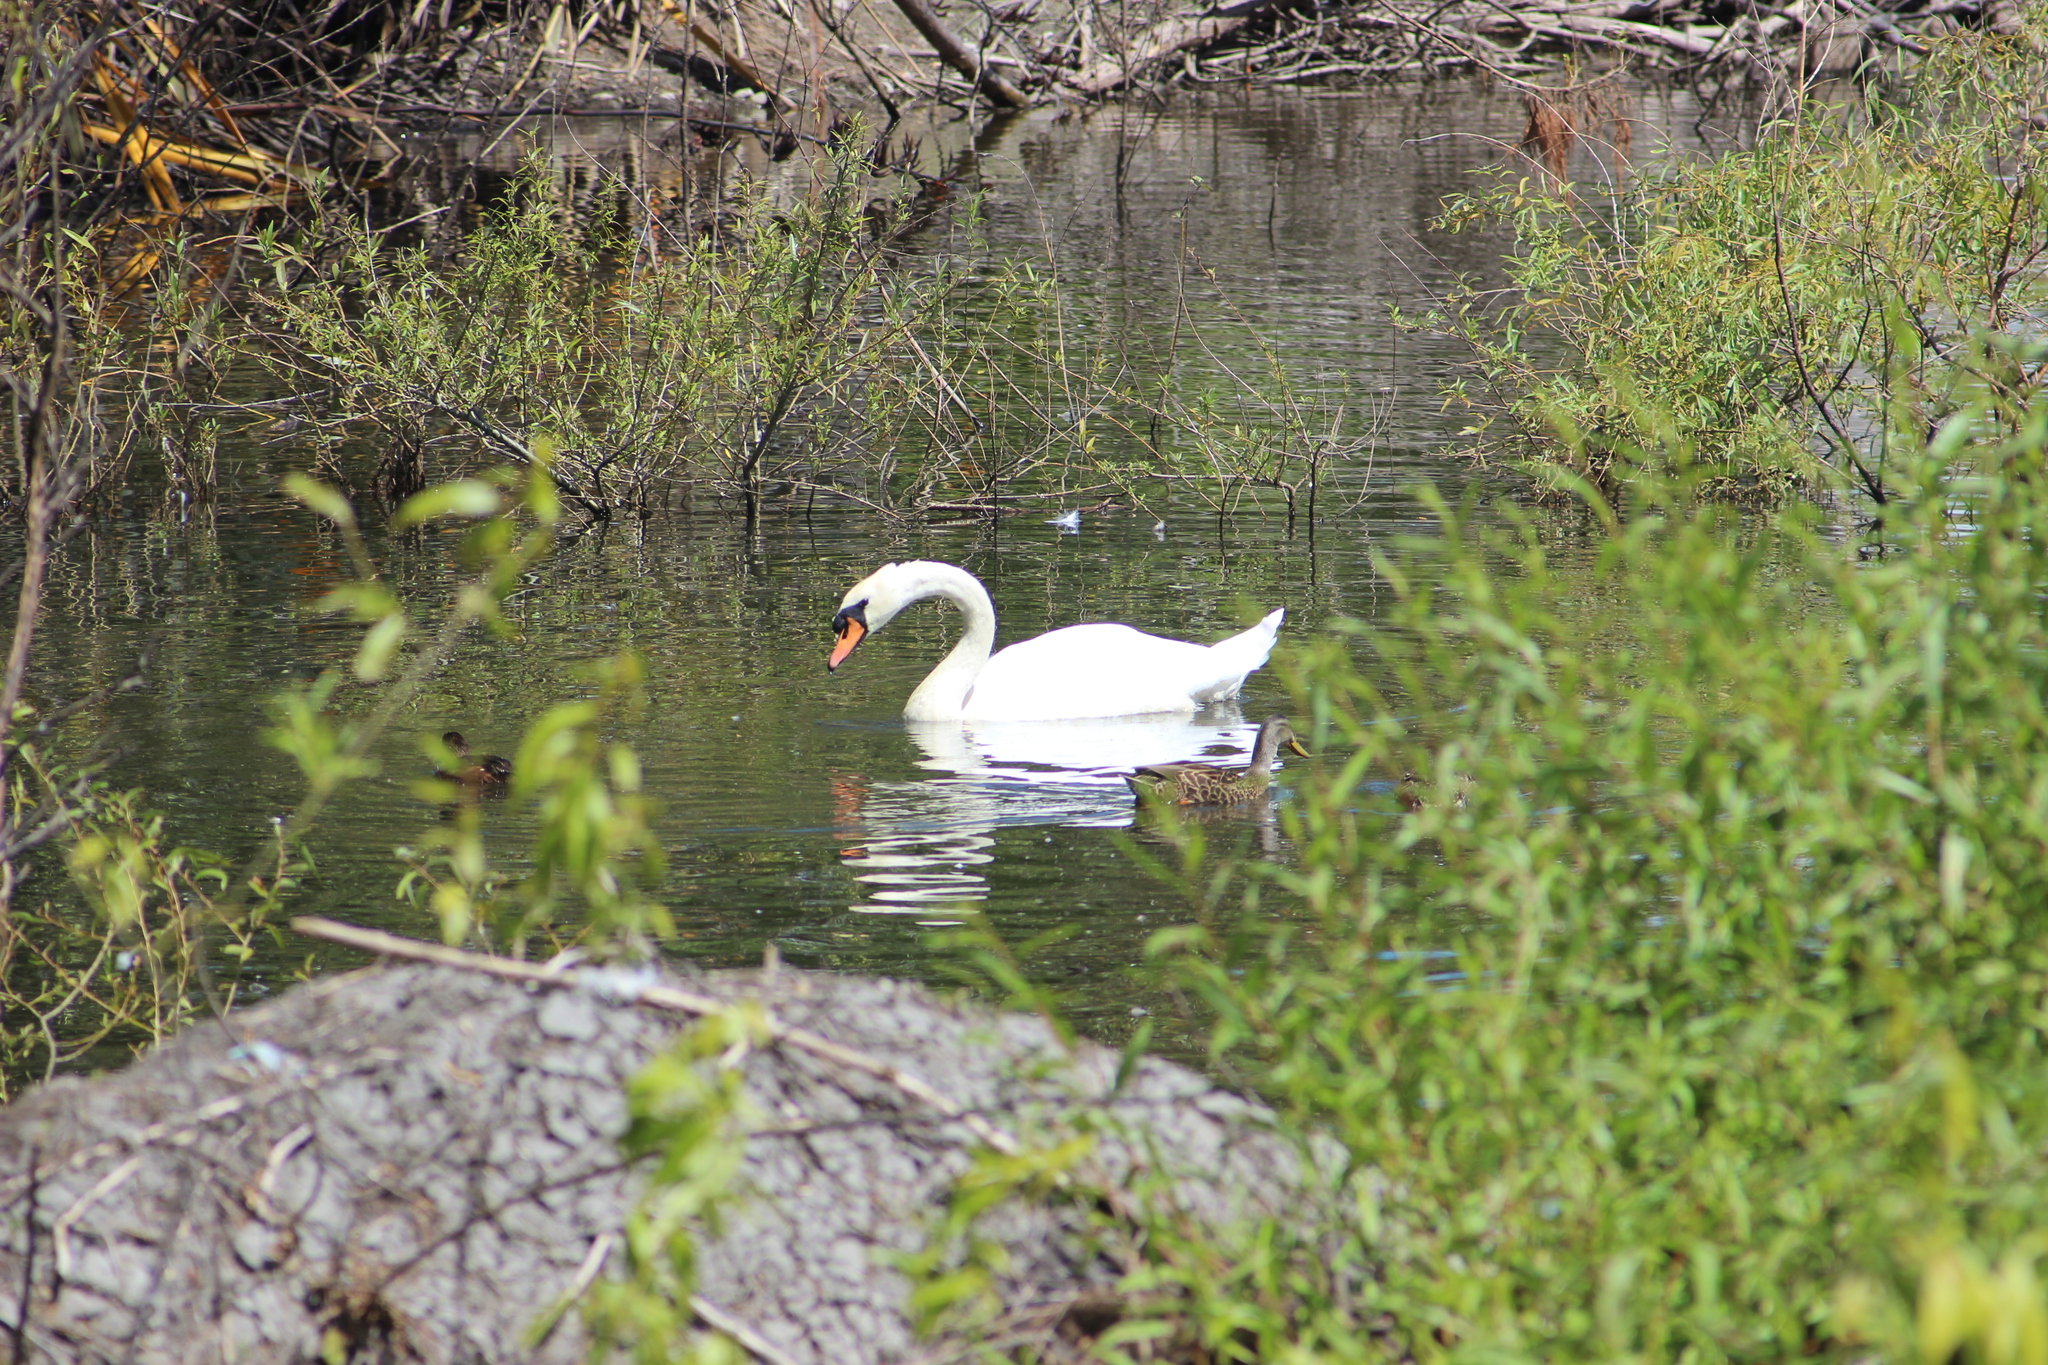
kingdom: Animalia
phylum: Chordata
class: Aves
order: Anseriformes
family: Anatidae
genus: Cygnus
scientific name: Cygnus olor
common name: Mute swan
